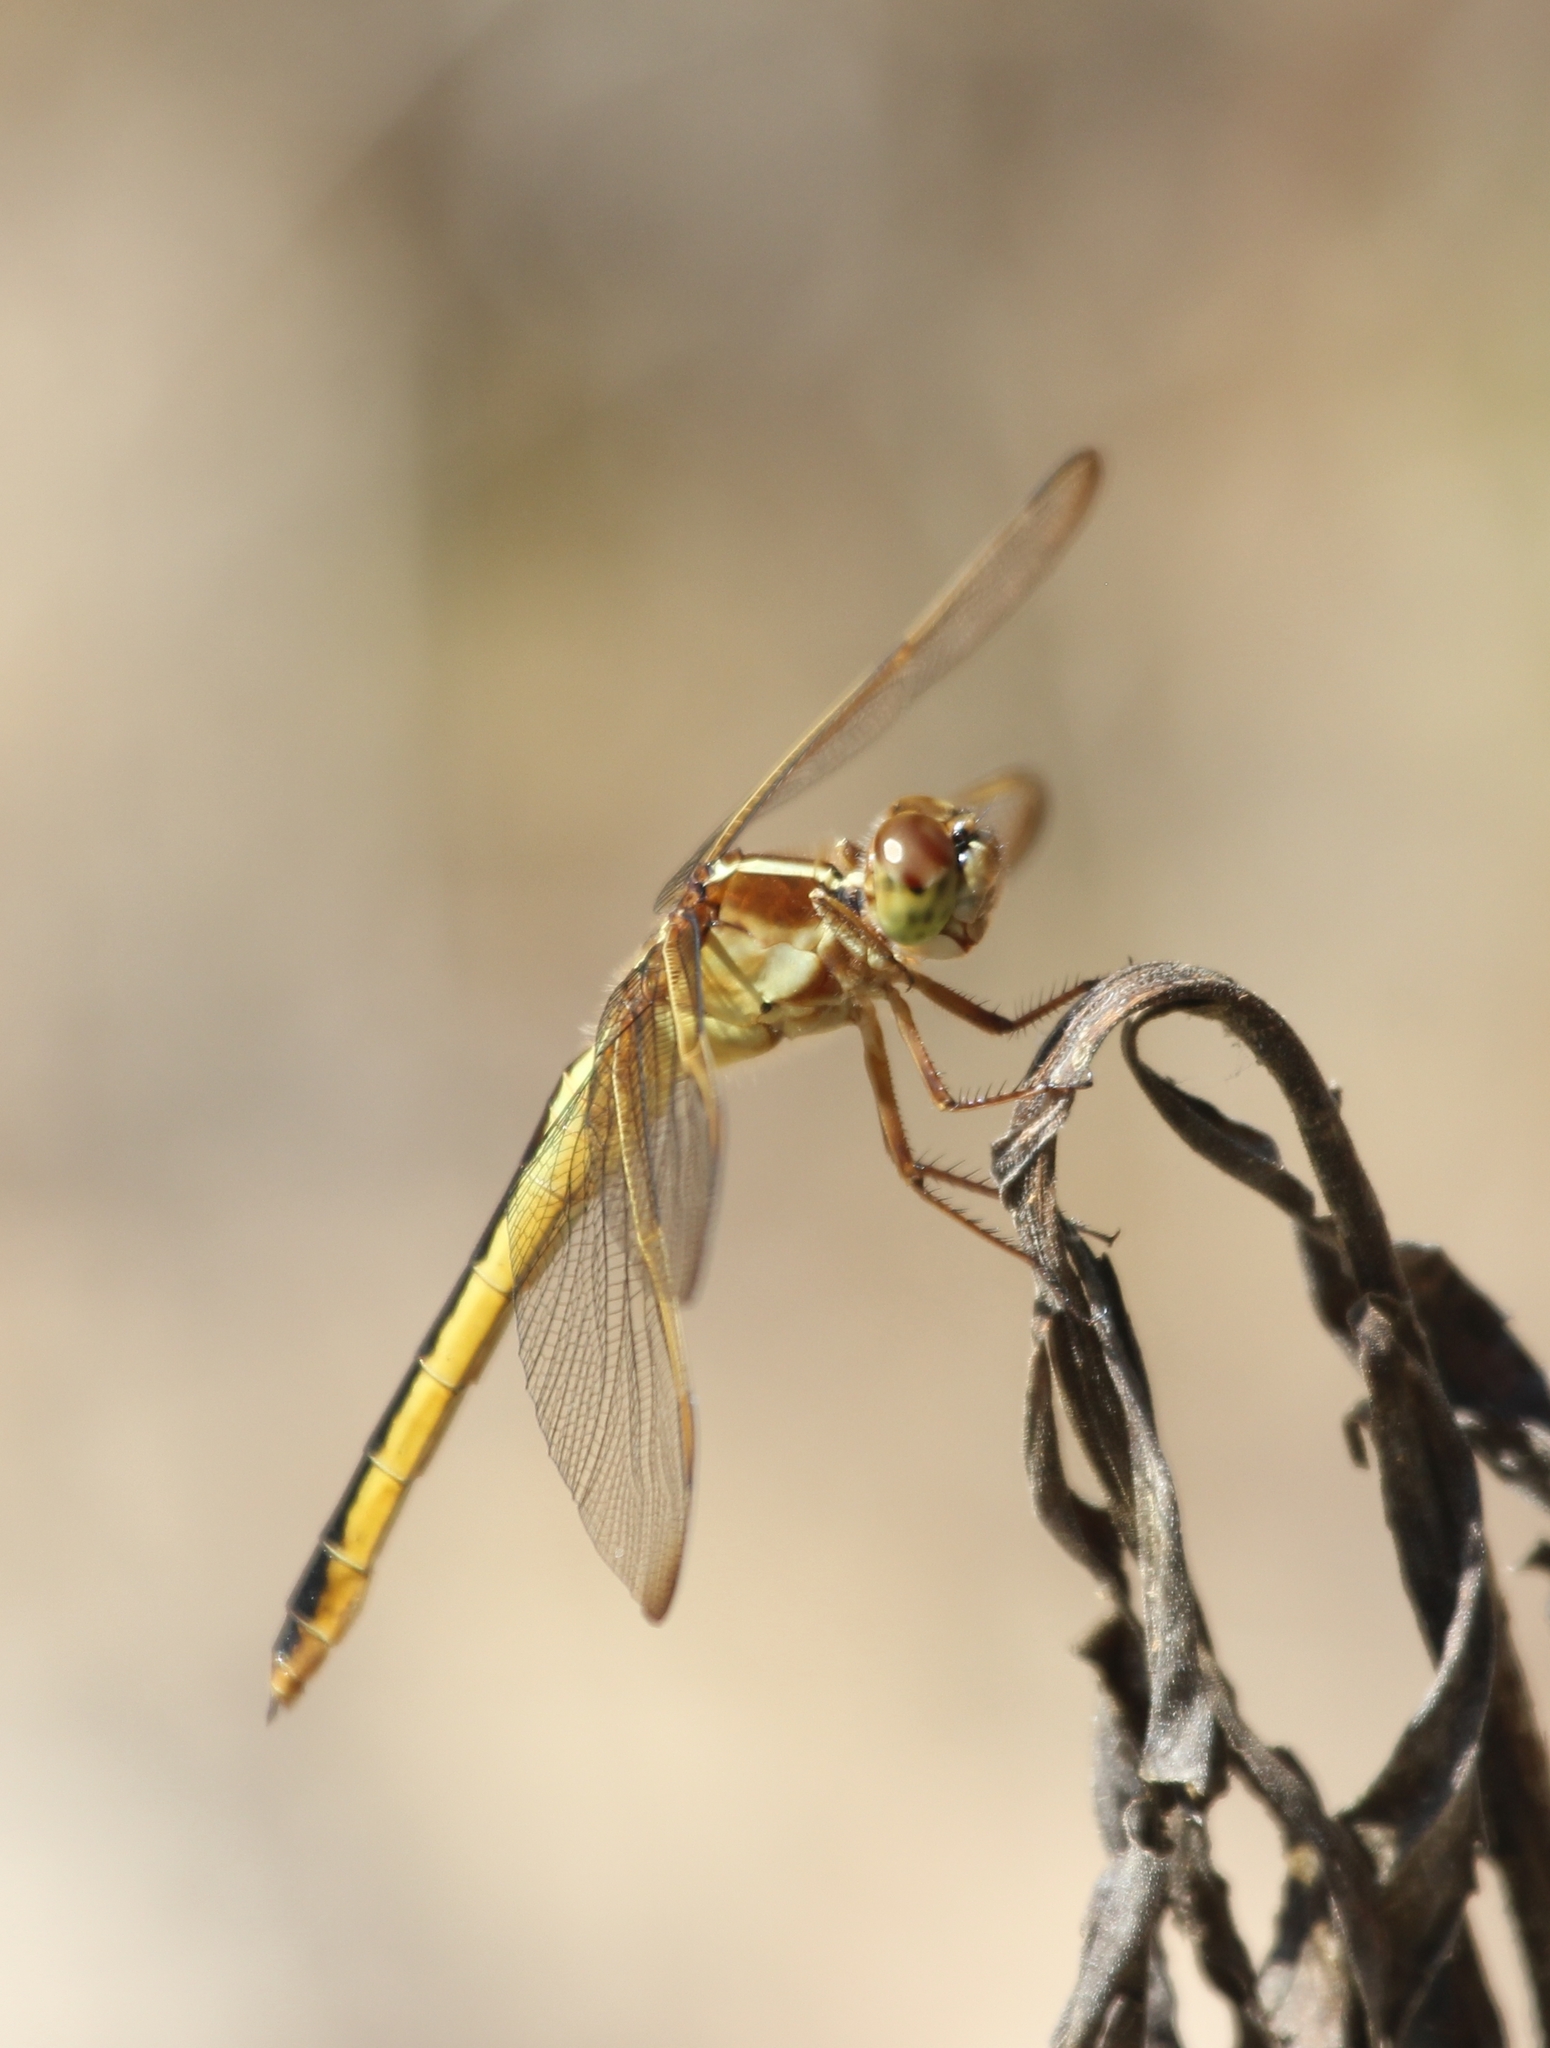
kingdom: Animalia
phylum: Arthropoda
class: Insecta
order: Odonata
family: Libellulidae
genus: Libellula
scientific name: Libellula needhami
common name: Needham's skimmer
